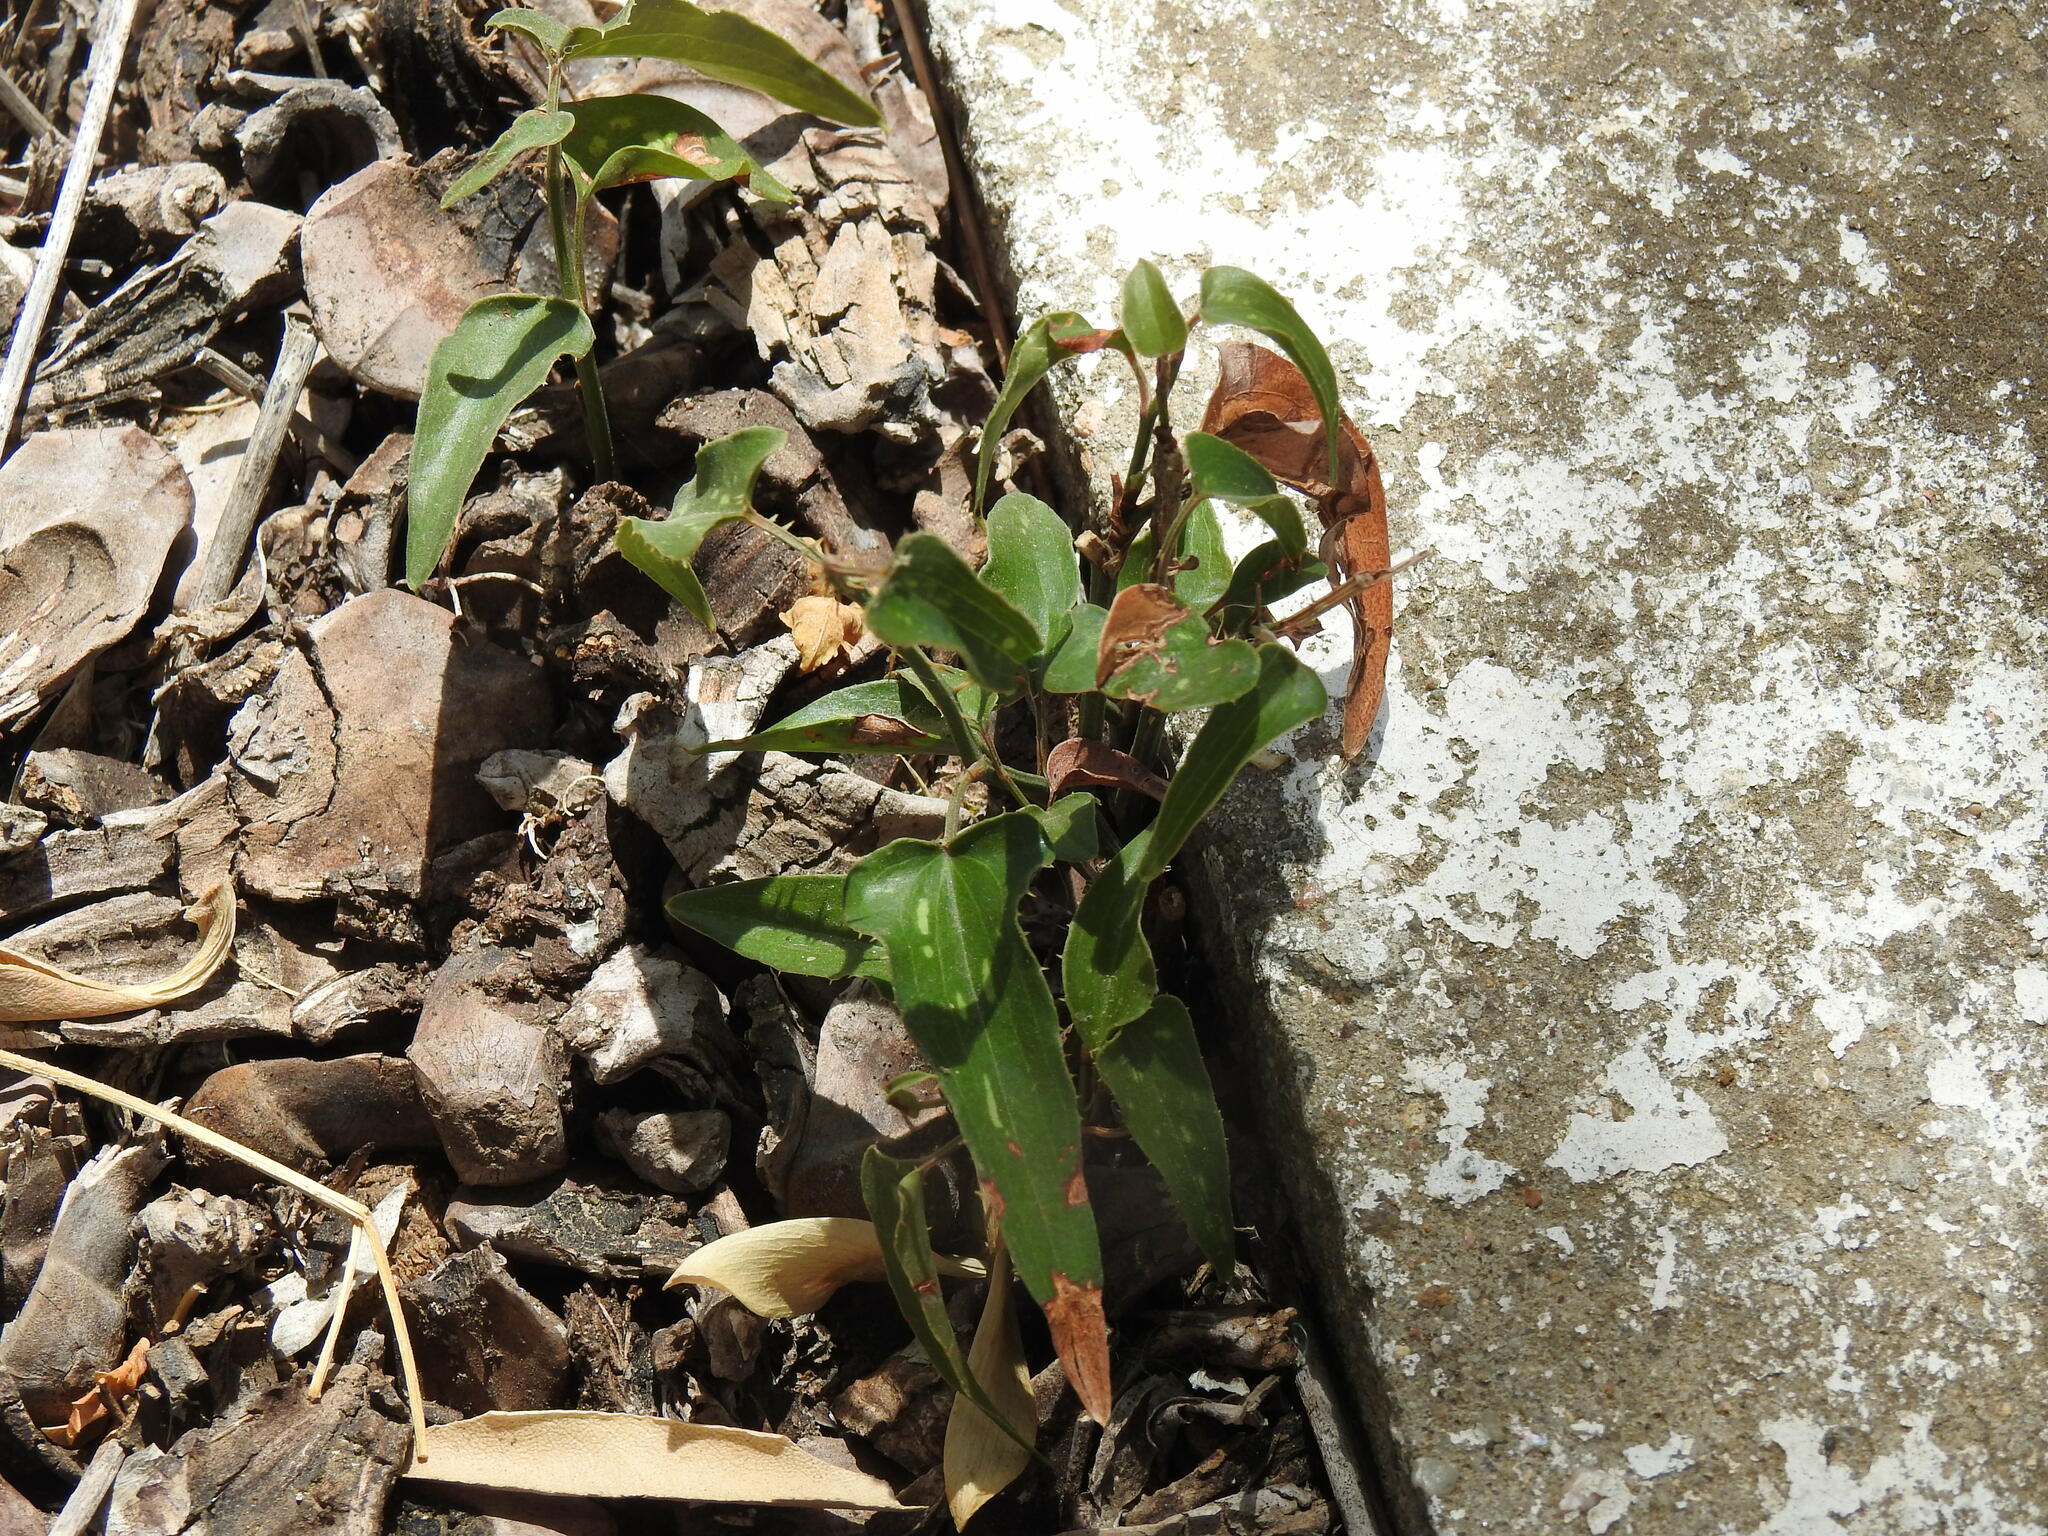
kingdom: Plantae
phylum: Tracheophyta
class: Liliopsida
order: Liliales
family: Smilacaceae
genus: Smilax
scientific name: Smilax aspera
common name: Common smilax
